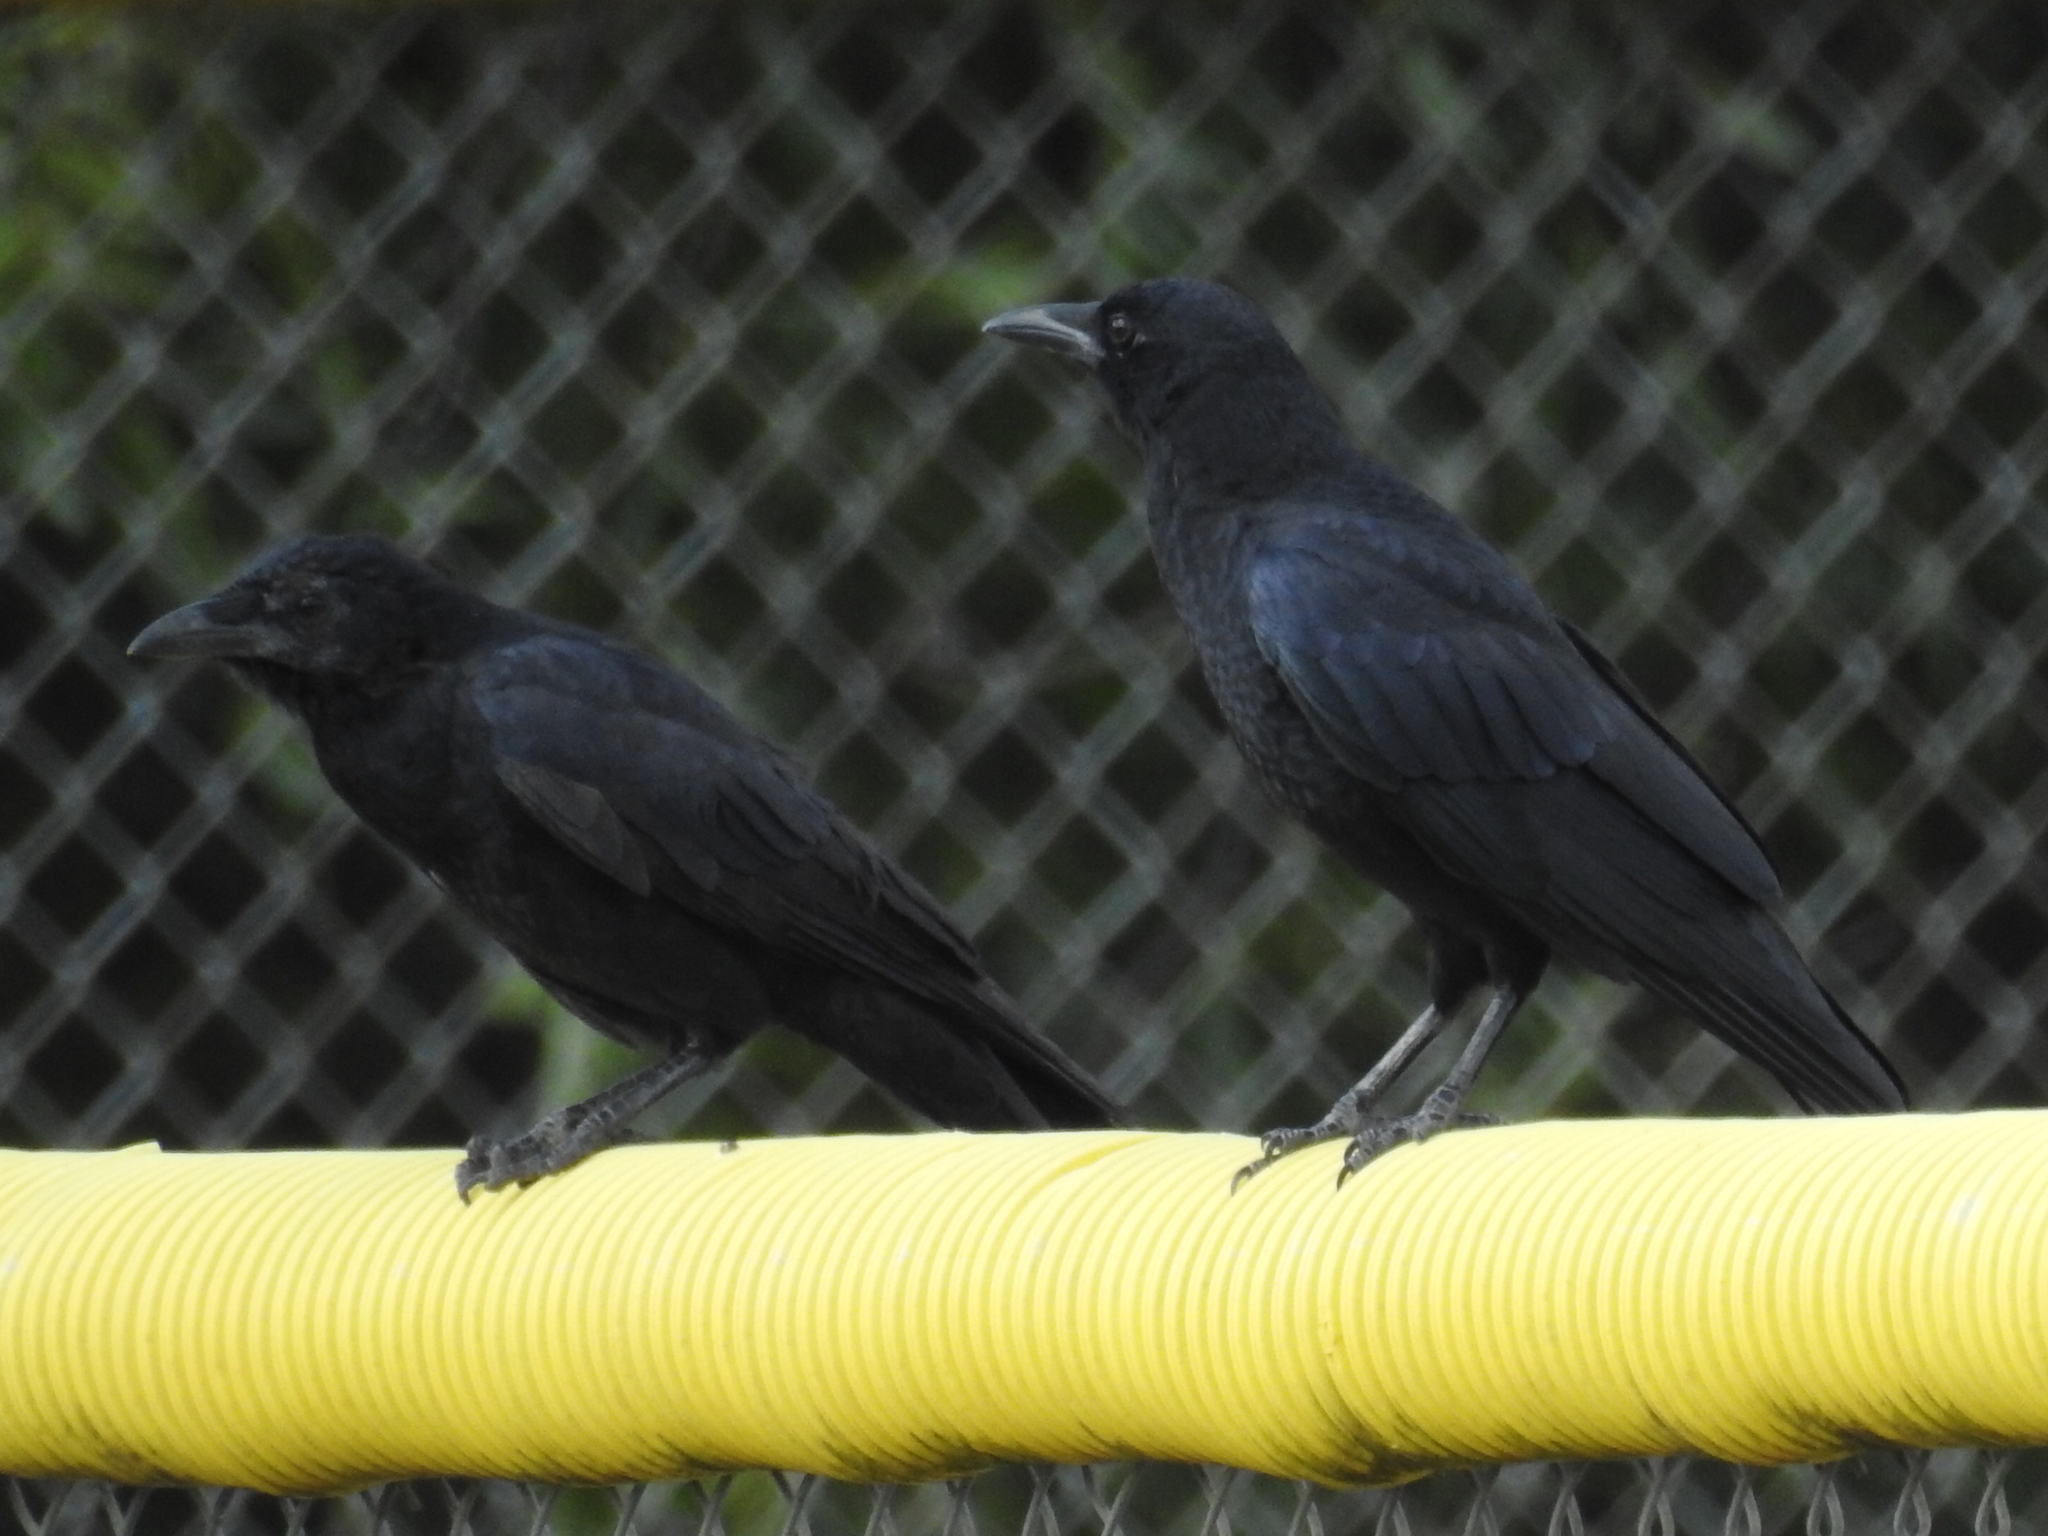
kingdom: Animalia
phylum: Chordata
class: Aves
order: Passeriformes
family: Corvidae
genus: Corvus
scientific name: Corvus brachyrhynchos
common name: American crow
